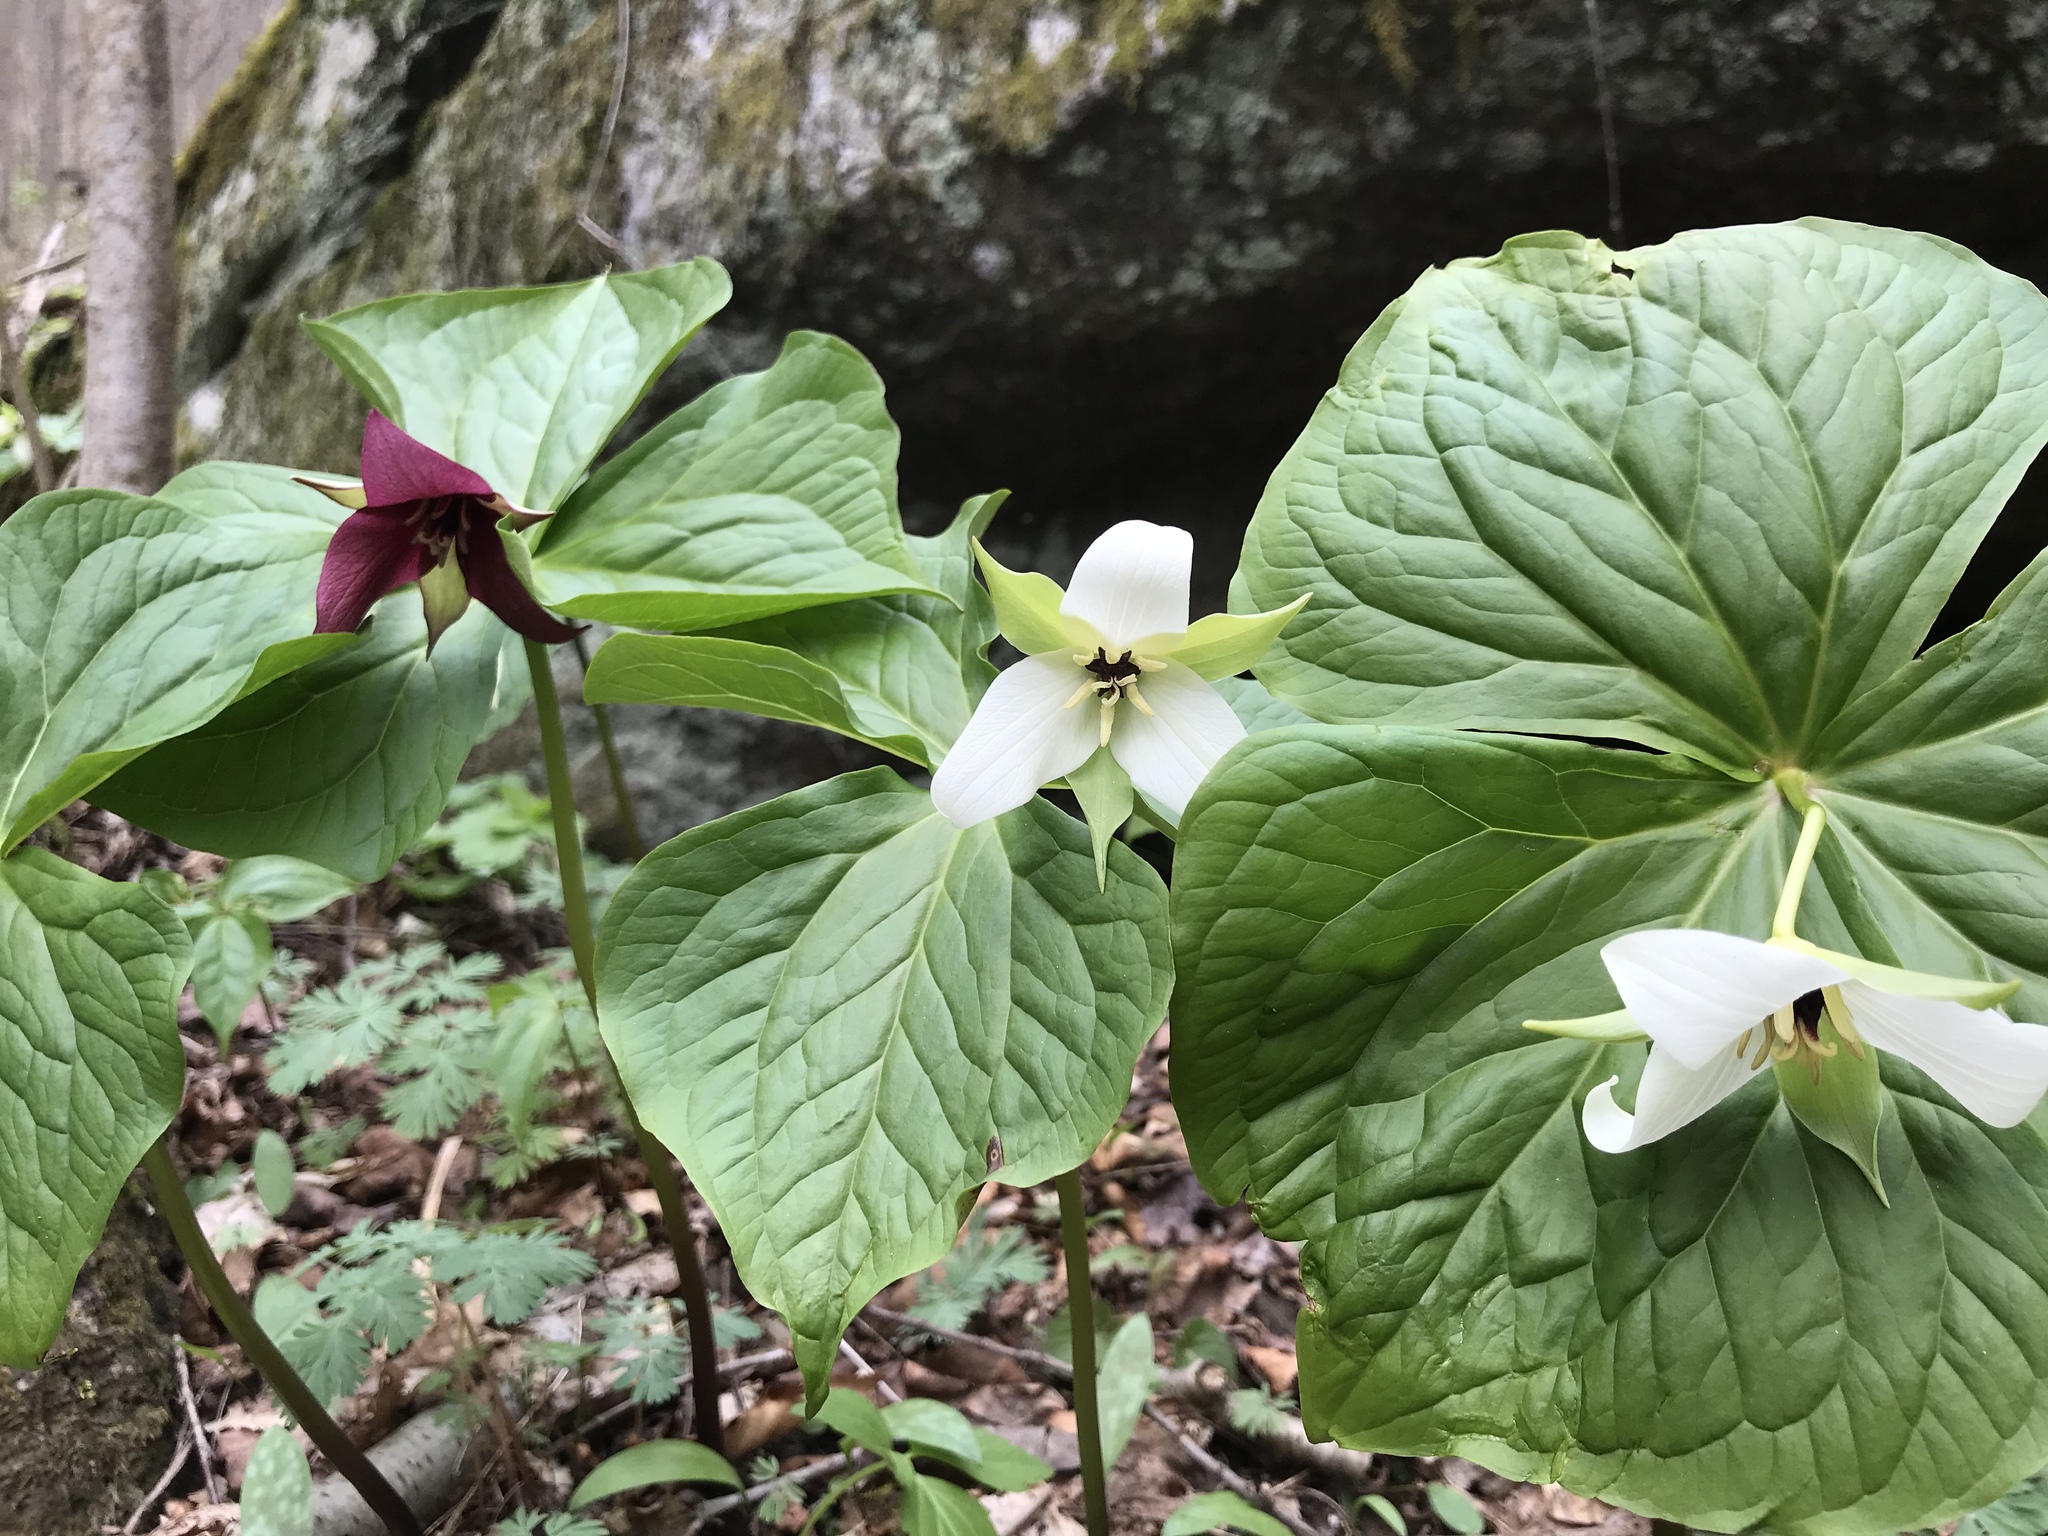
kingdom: Plantae
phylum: Tracheophyta
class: Liliopsida
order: Liliales
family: Melanthiaceae
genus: Trillium
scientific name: Trillium erectum
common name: Purple trillium
